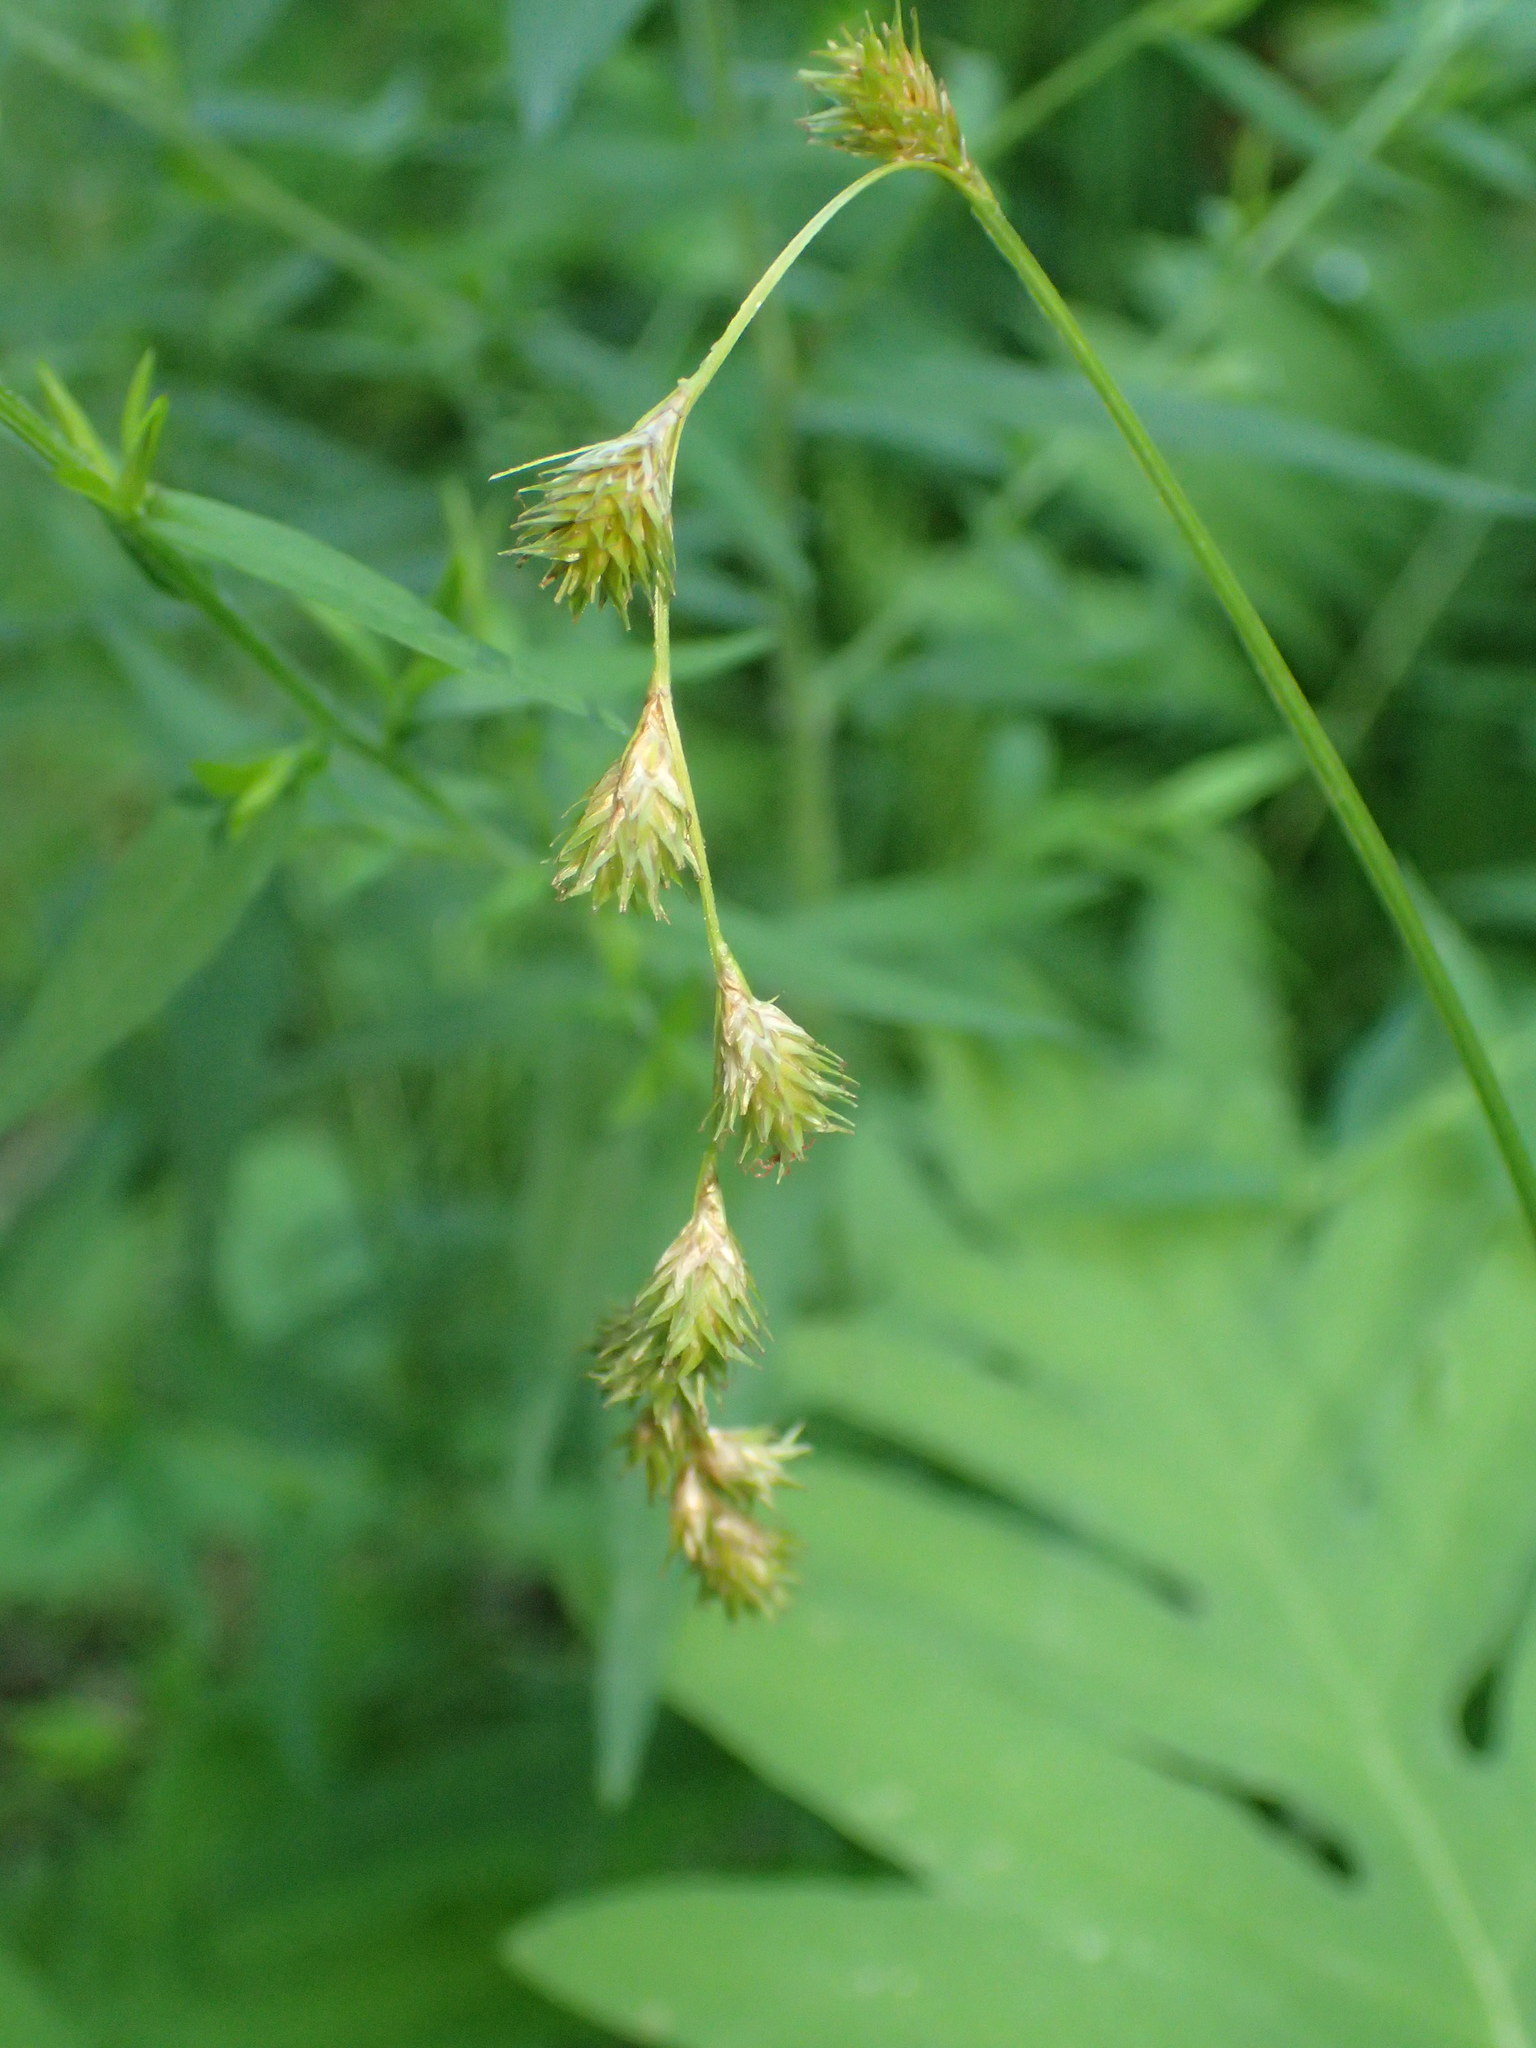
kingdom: Plantae
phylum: Tracheophyta
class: Liliopsida
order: Poales
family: Cyperaceae
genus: Carex
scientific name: Carex projecta
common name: Loose-headed oval sedge
